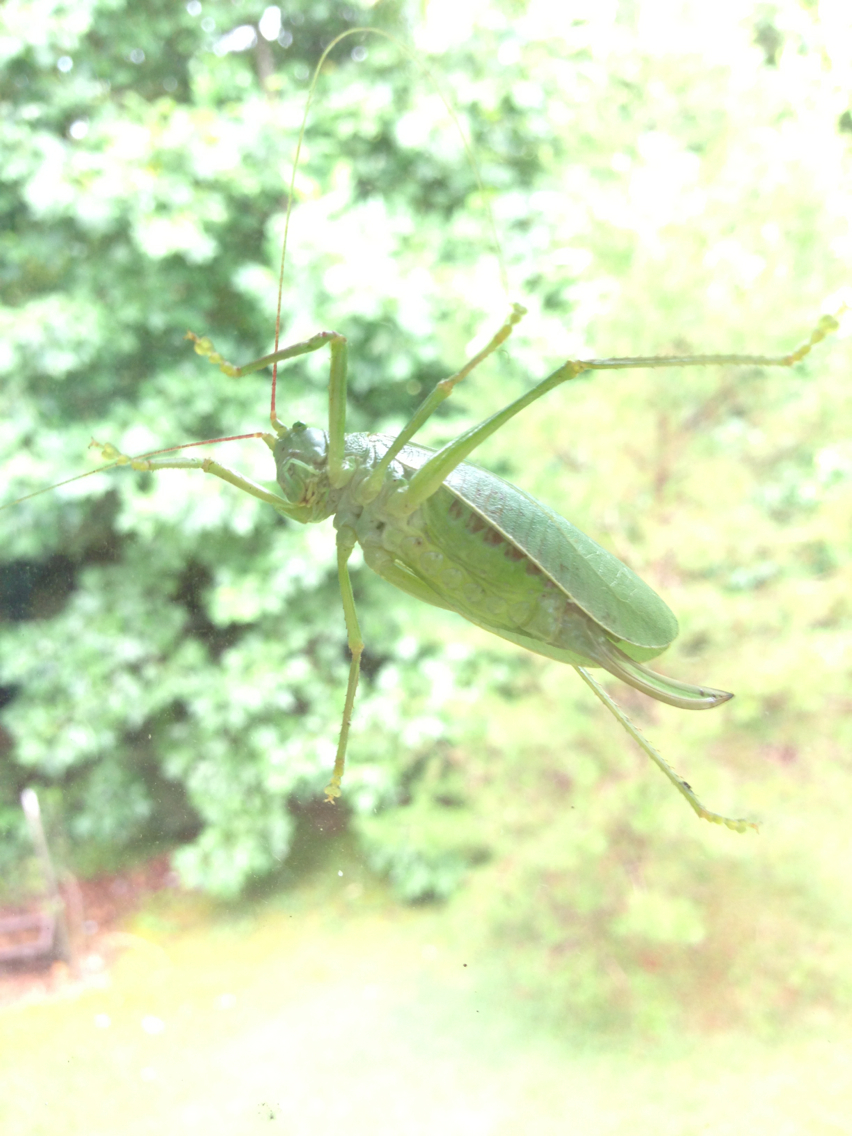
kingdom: Animalia
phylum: Arthropoda
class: Insecta
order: Orthoptera
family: Tettigoniidae
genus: Pterophylla
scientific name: Pterophylla camellifolia
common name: Common true katydid
